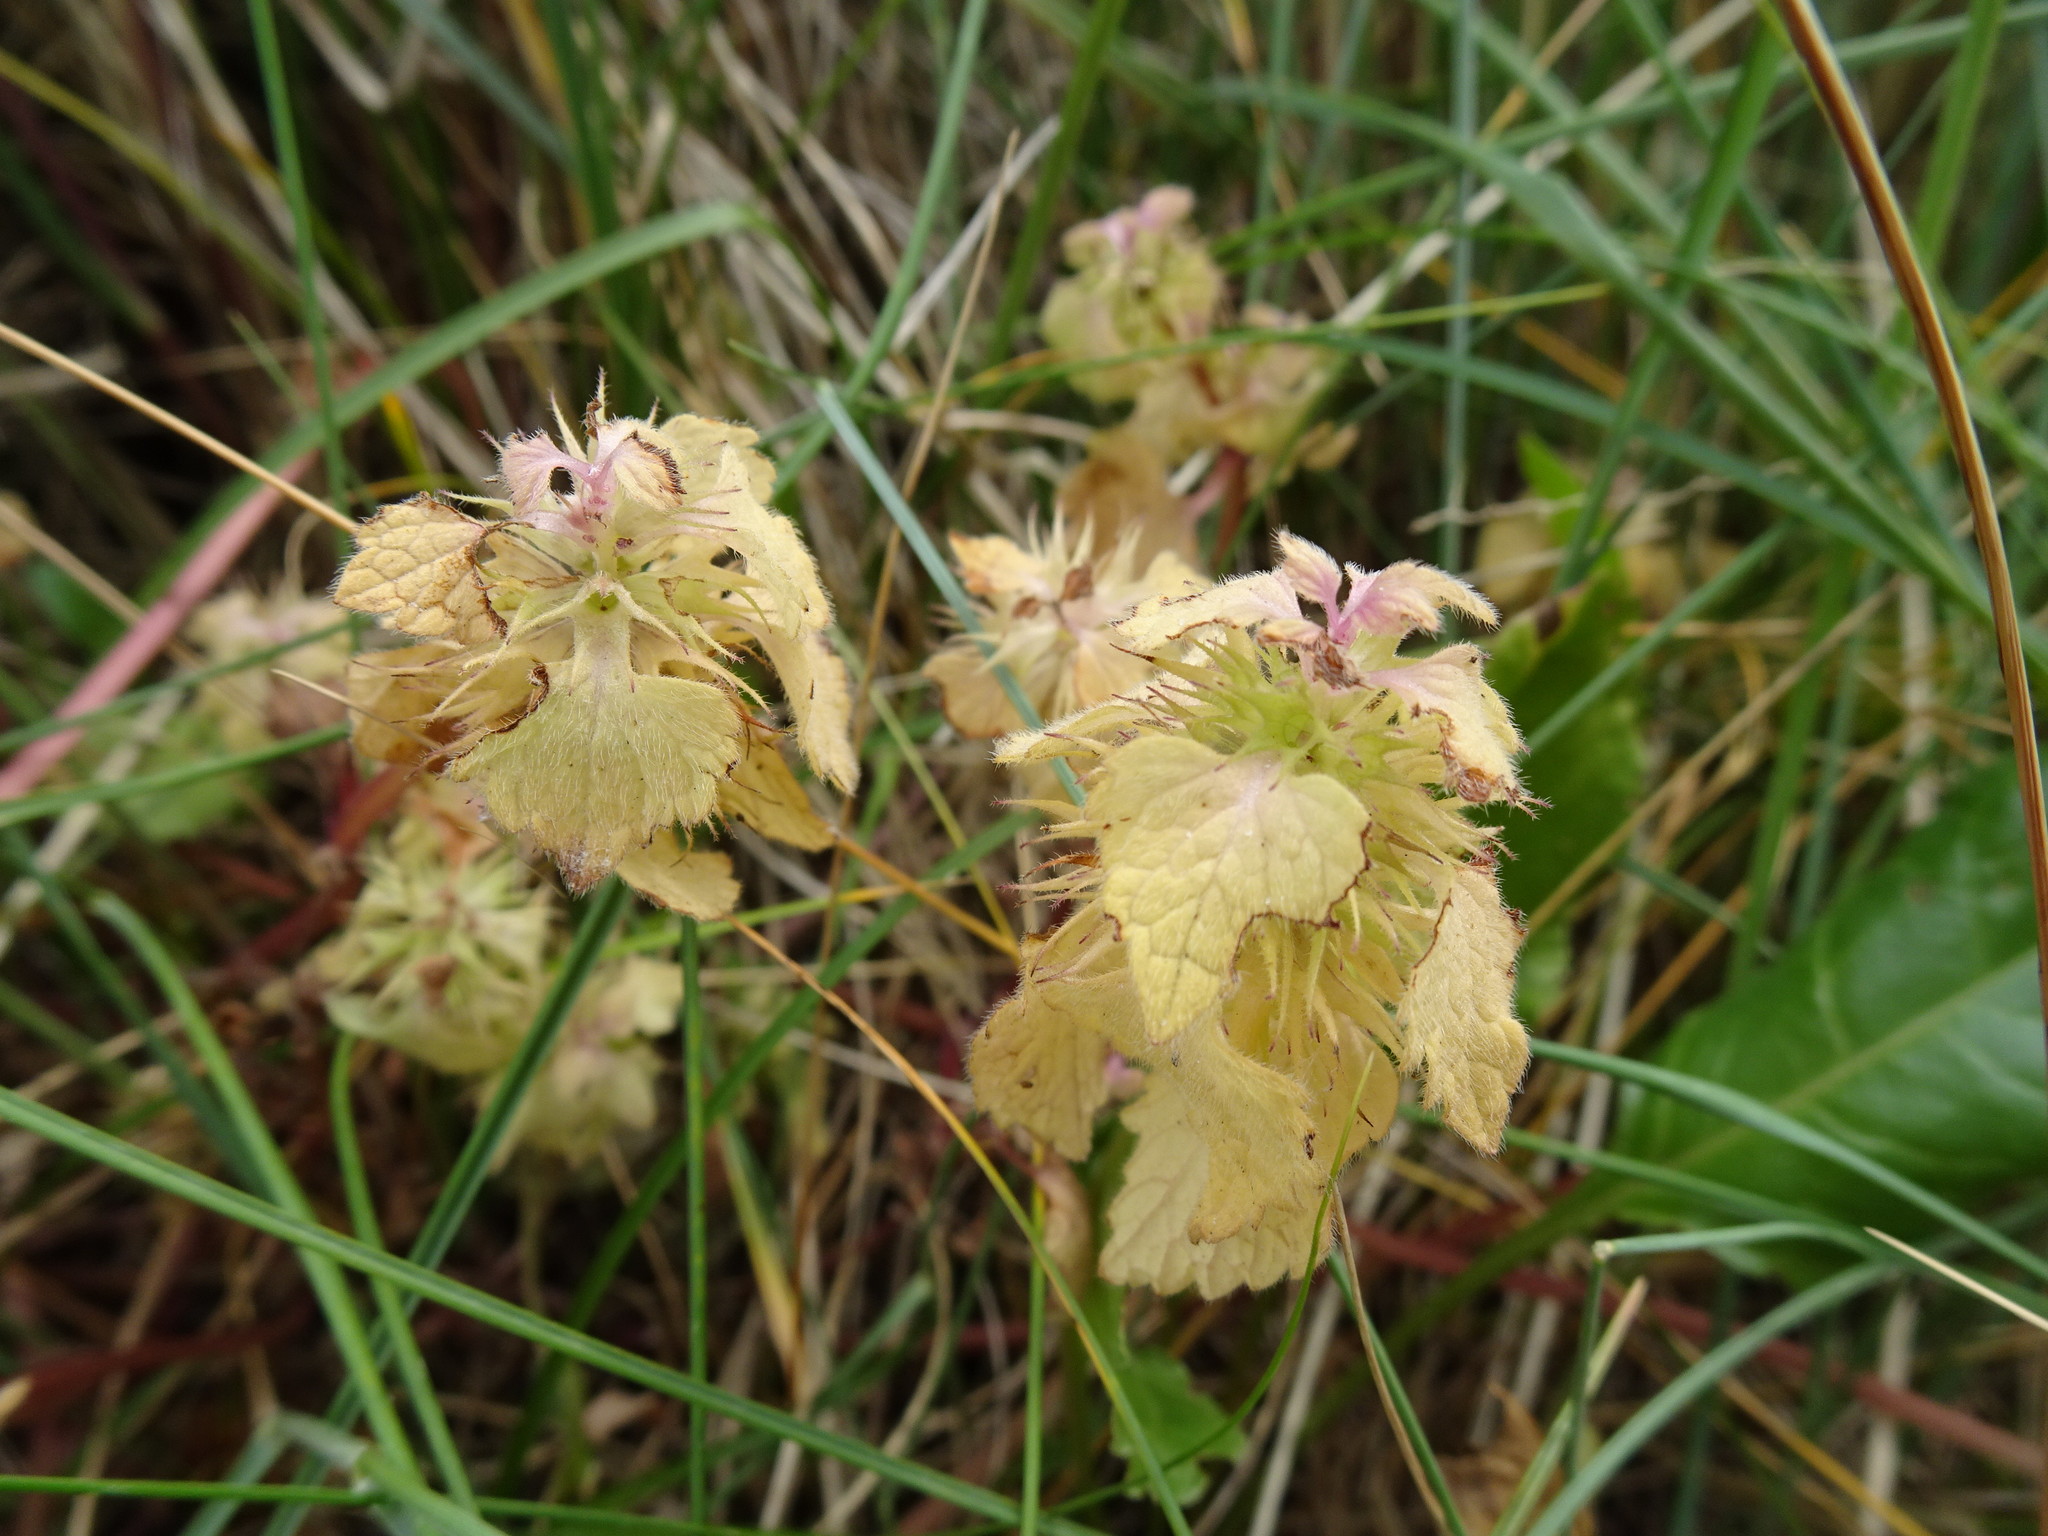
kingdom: Plantae
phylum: Tracheophyta
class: Magnoliopsida
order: Lamiales
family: Lamiaceae
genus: Lamium
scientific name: Lamium purpureum
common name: Red dead-nettle
